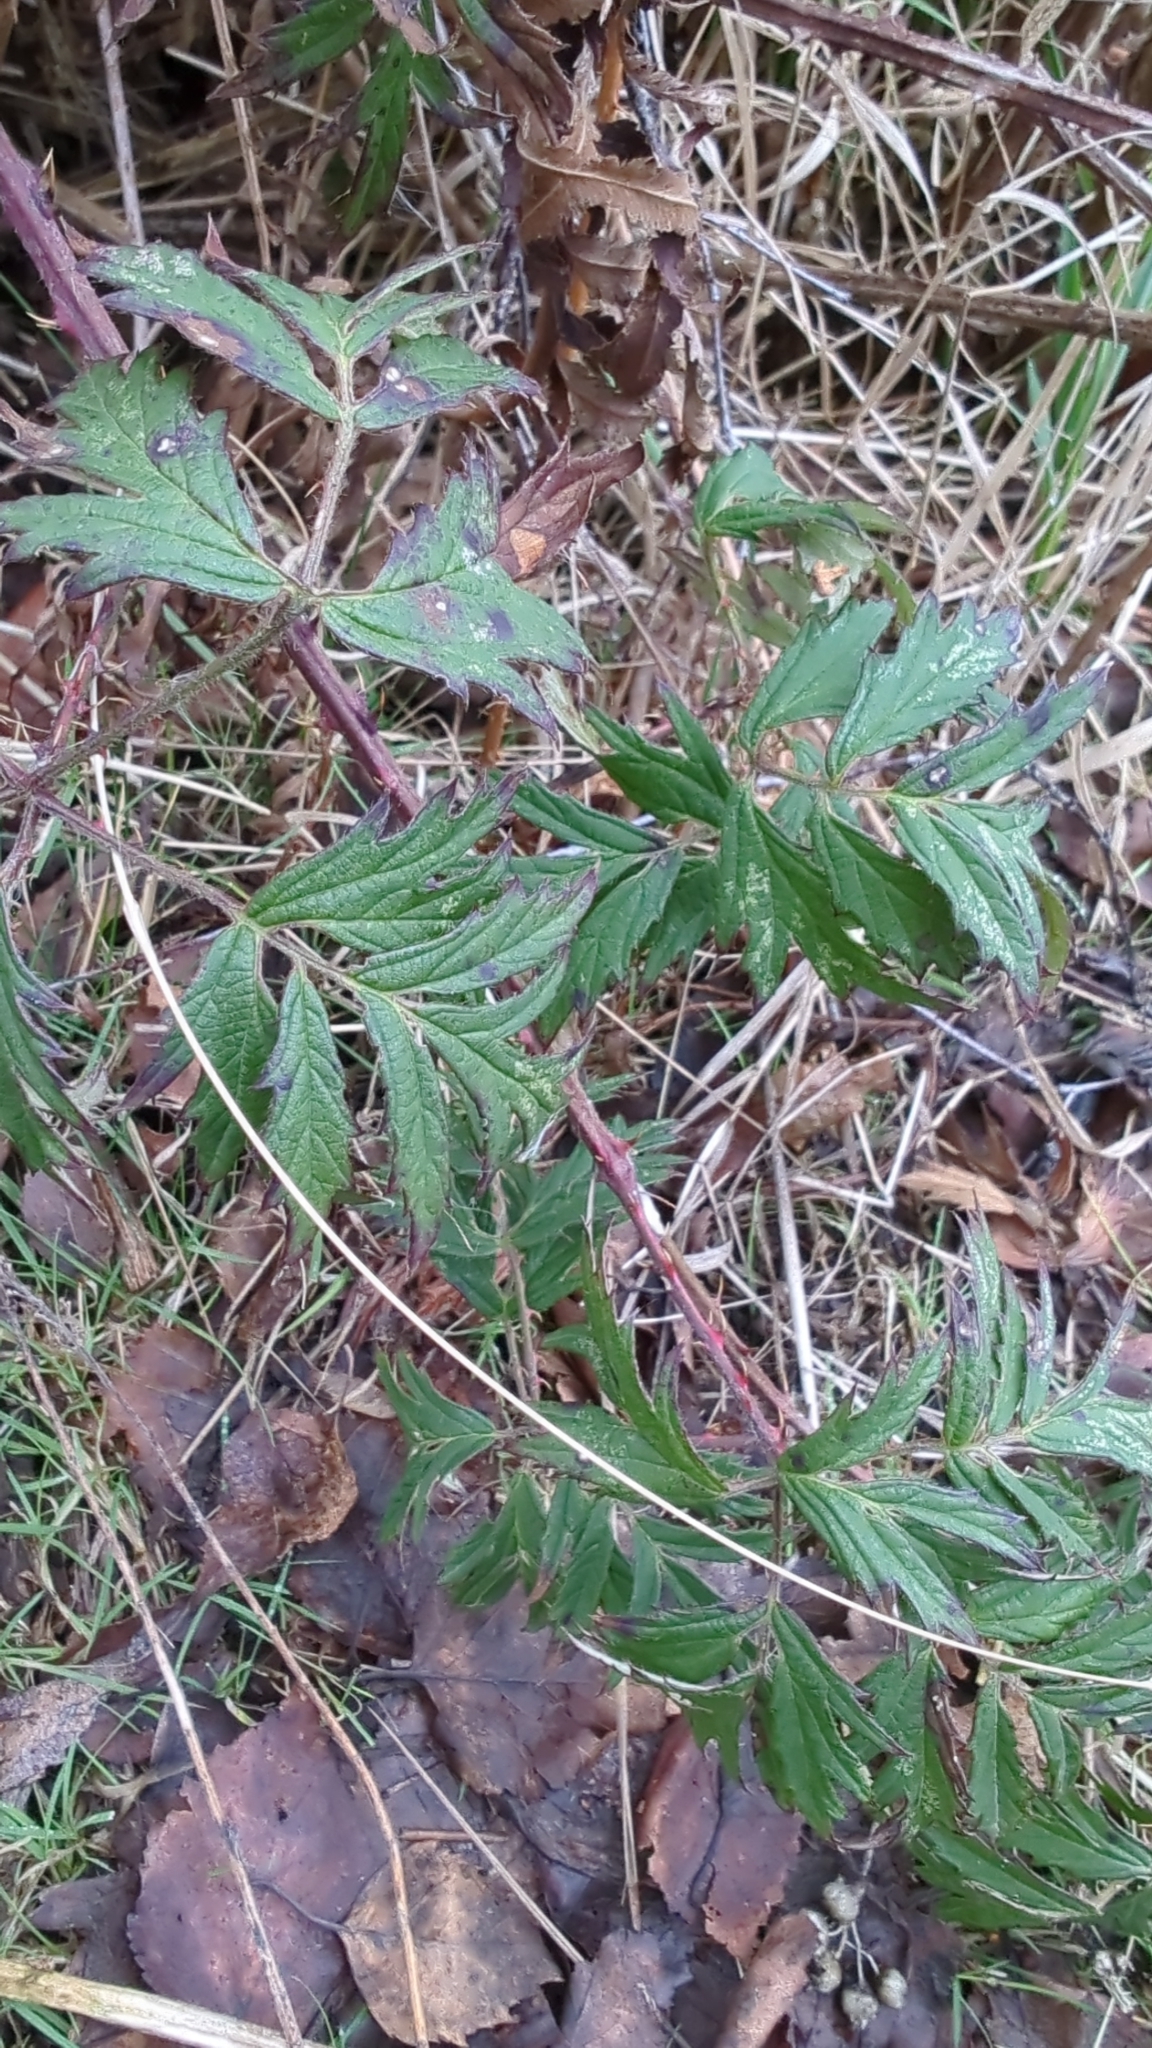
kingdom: Plantae
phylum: Tracheophyta
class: Magnoliopsida
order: Rosales
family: Rosaceae
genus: Rubus
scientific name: Rubus laciniatus
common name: Evergreen blackberry
